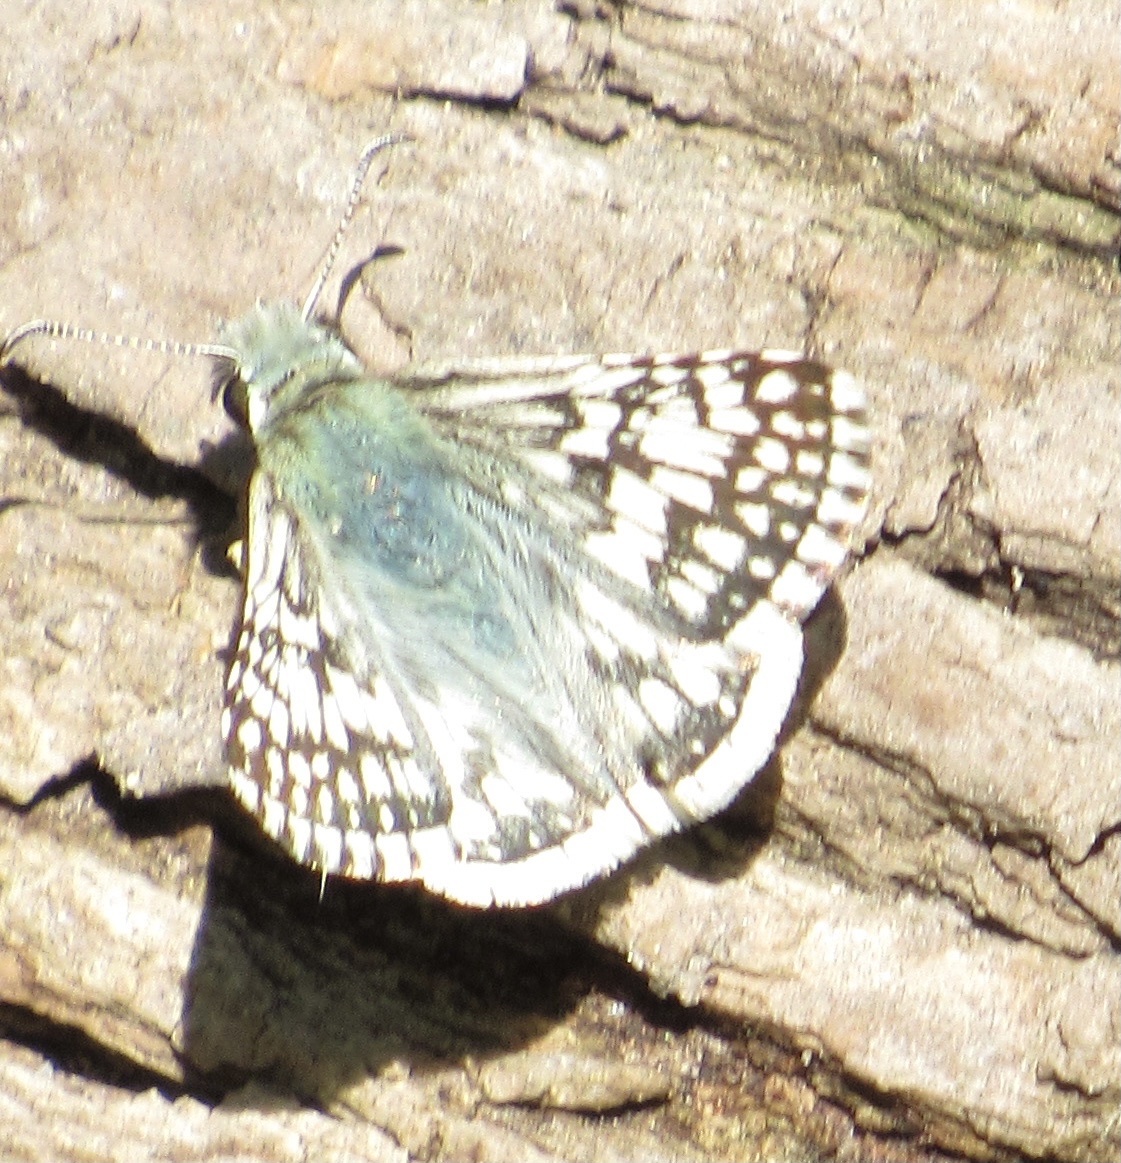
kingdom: Animalia
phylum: Arthropoda
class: Insecta
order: Lepidoptera
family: Hesperiidae
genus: Burnsius
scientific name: Burnsius communis
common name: Common checkered-skipper
